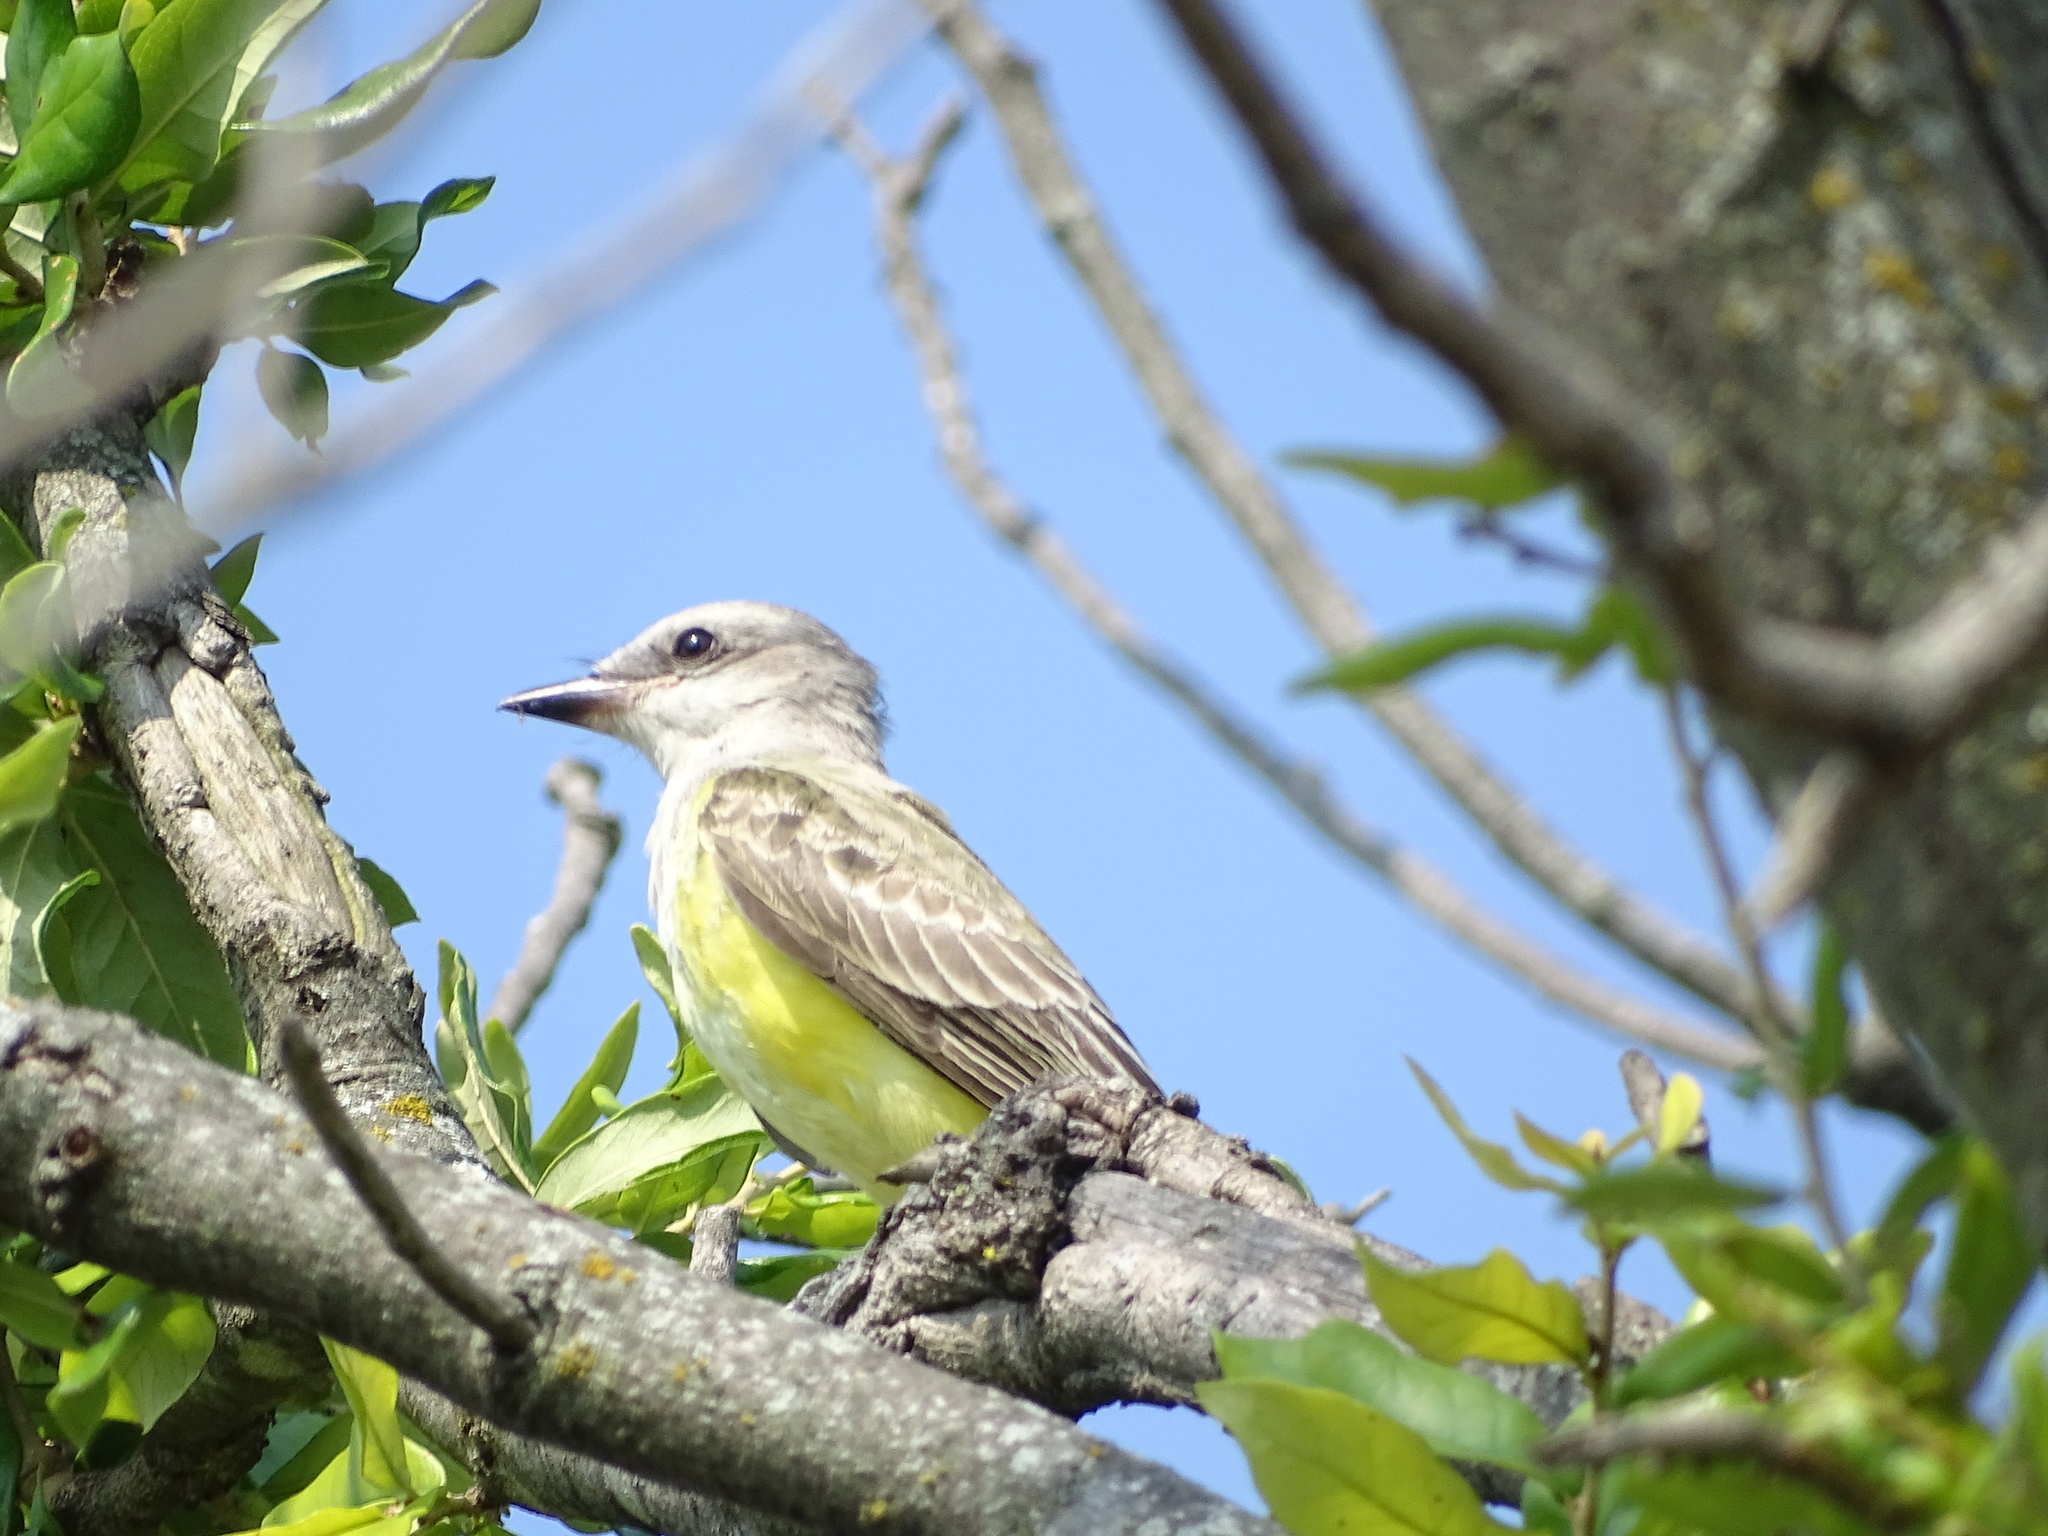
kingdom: Animalia
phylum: Chordata
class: Aves
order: Passeriformes
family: Tyrannidae
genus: Tyrannus
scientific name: Tyrannus verticalis
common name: Western kingbird
